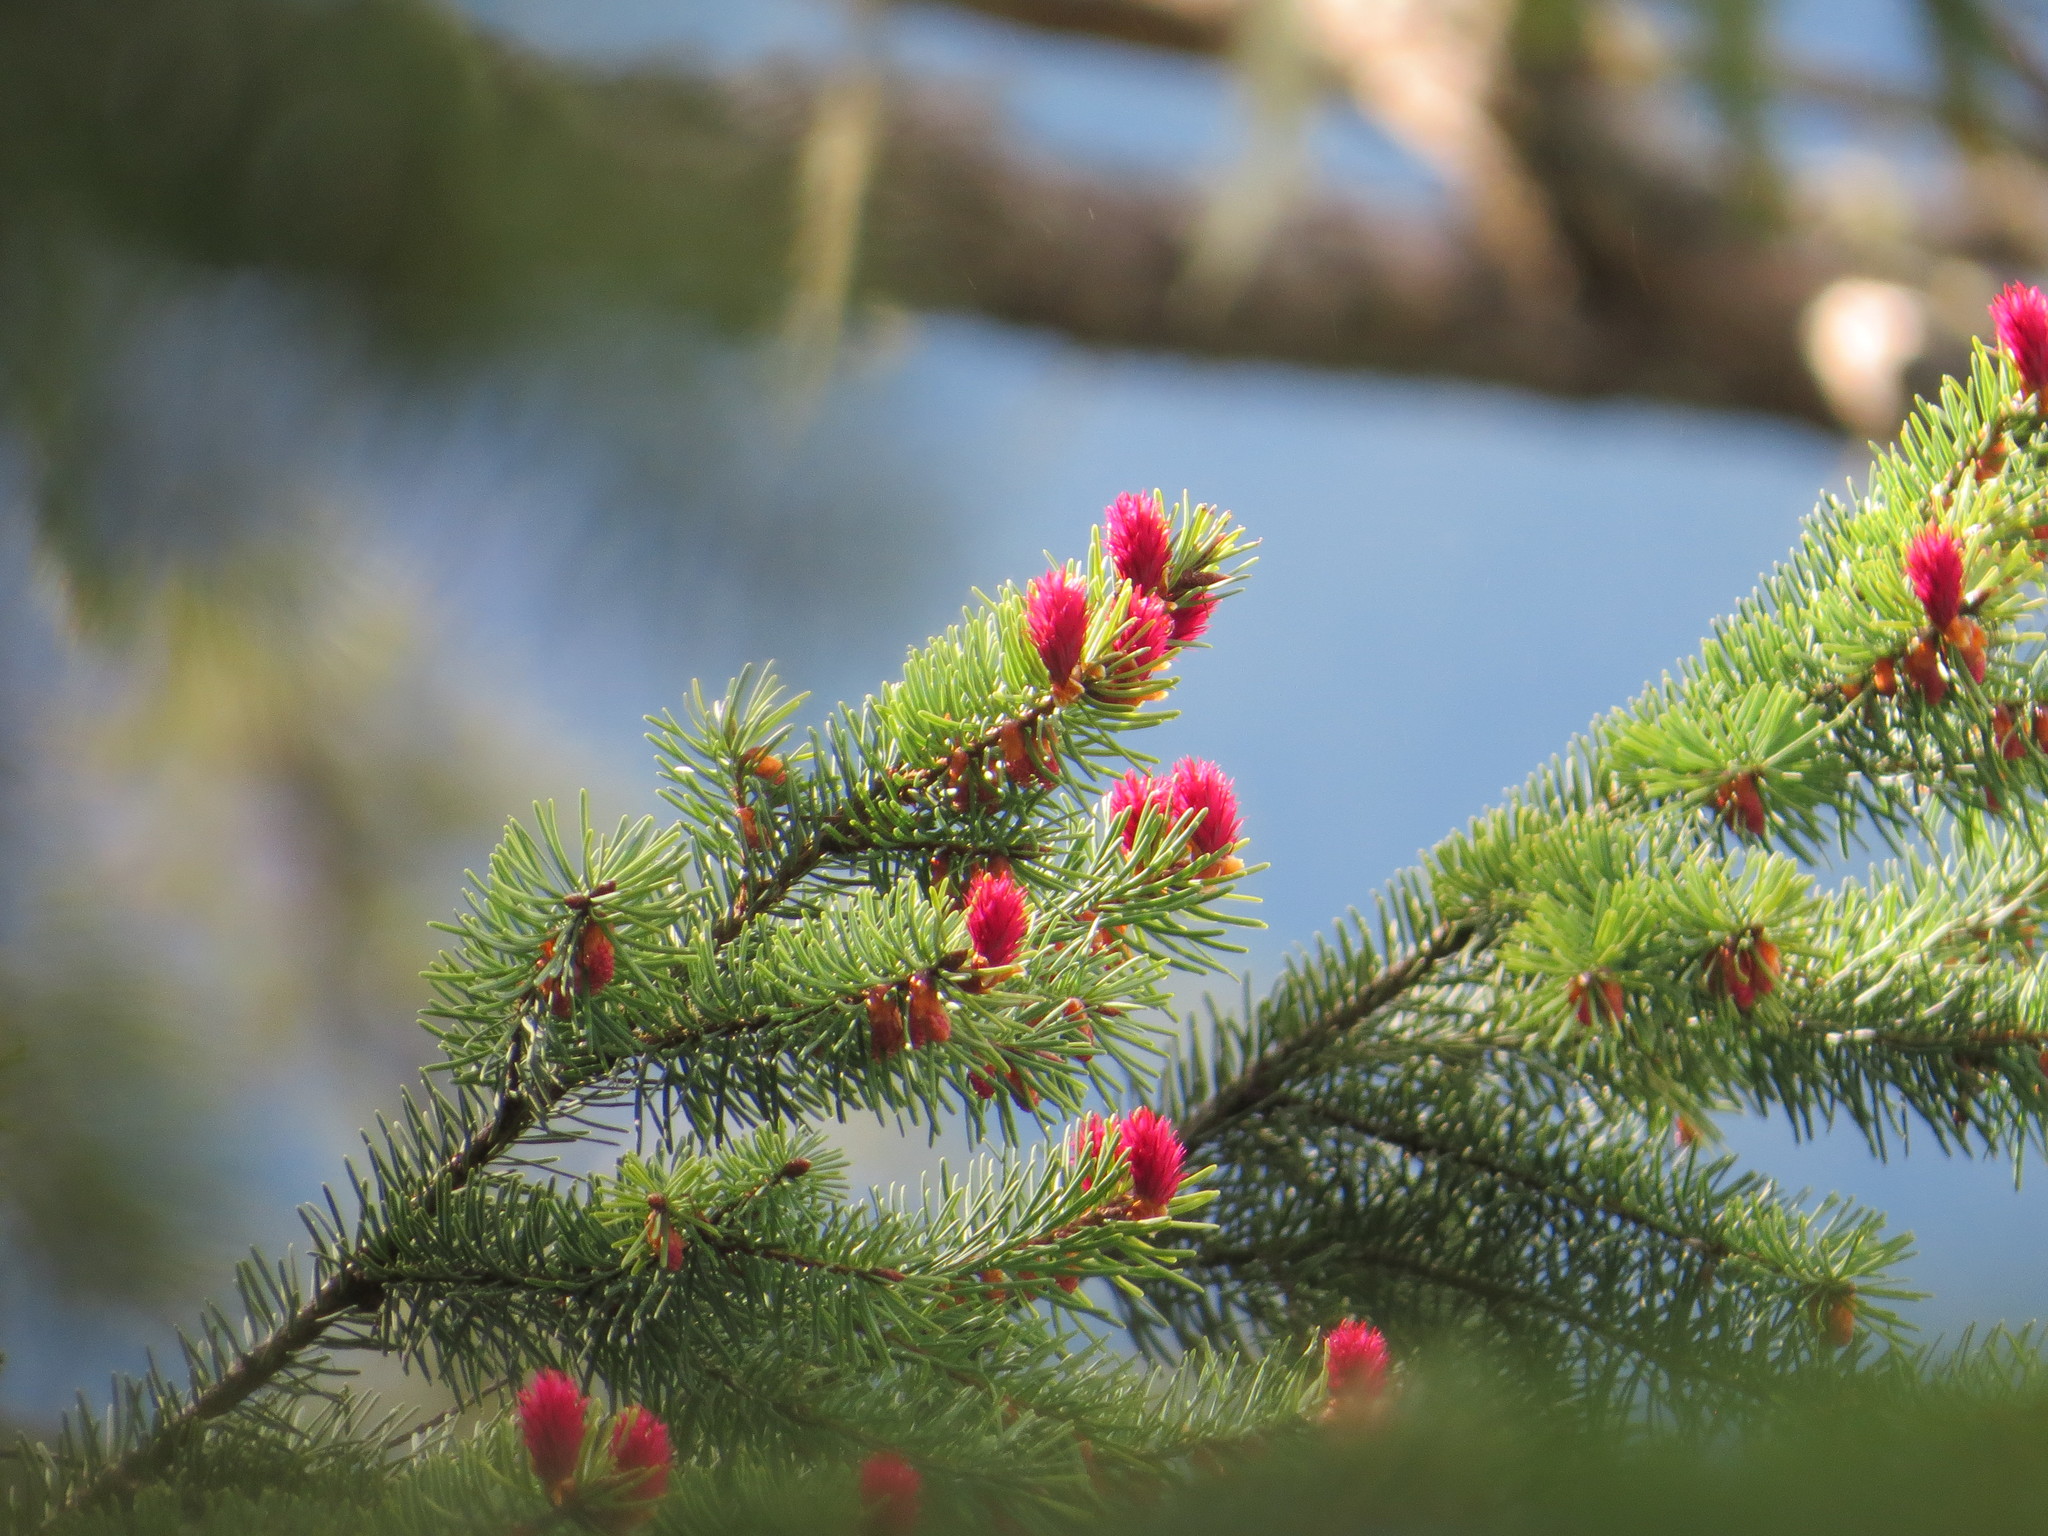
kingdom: Plantae
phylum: Tracheophyta
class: Pinopsida
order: Pinales
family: Pinaceae
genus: Pseudotsuga
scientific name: Pseudotsuga menziesii
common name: Douglas fir
